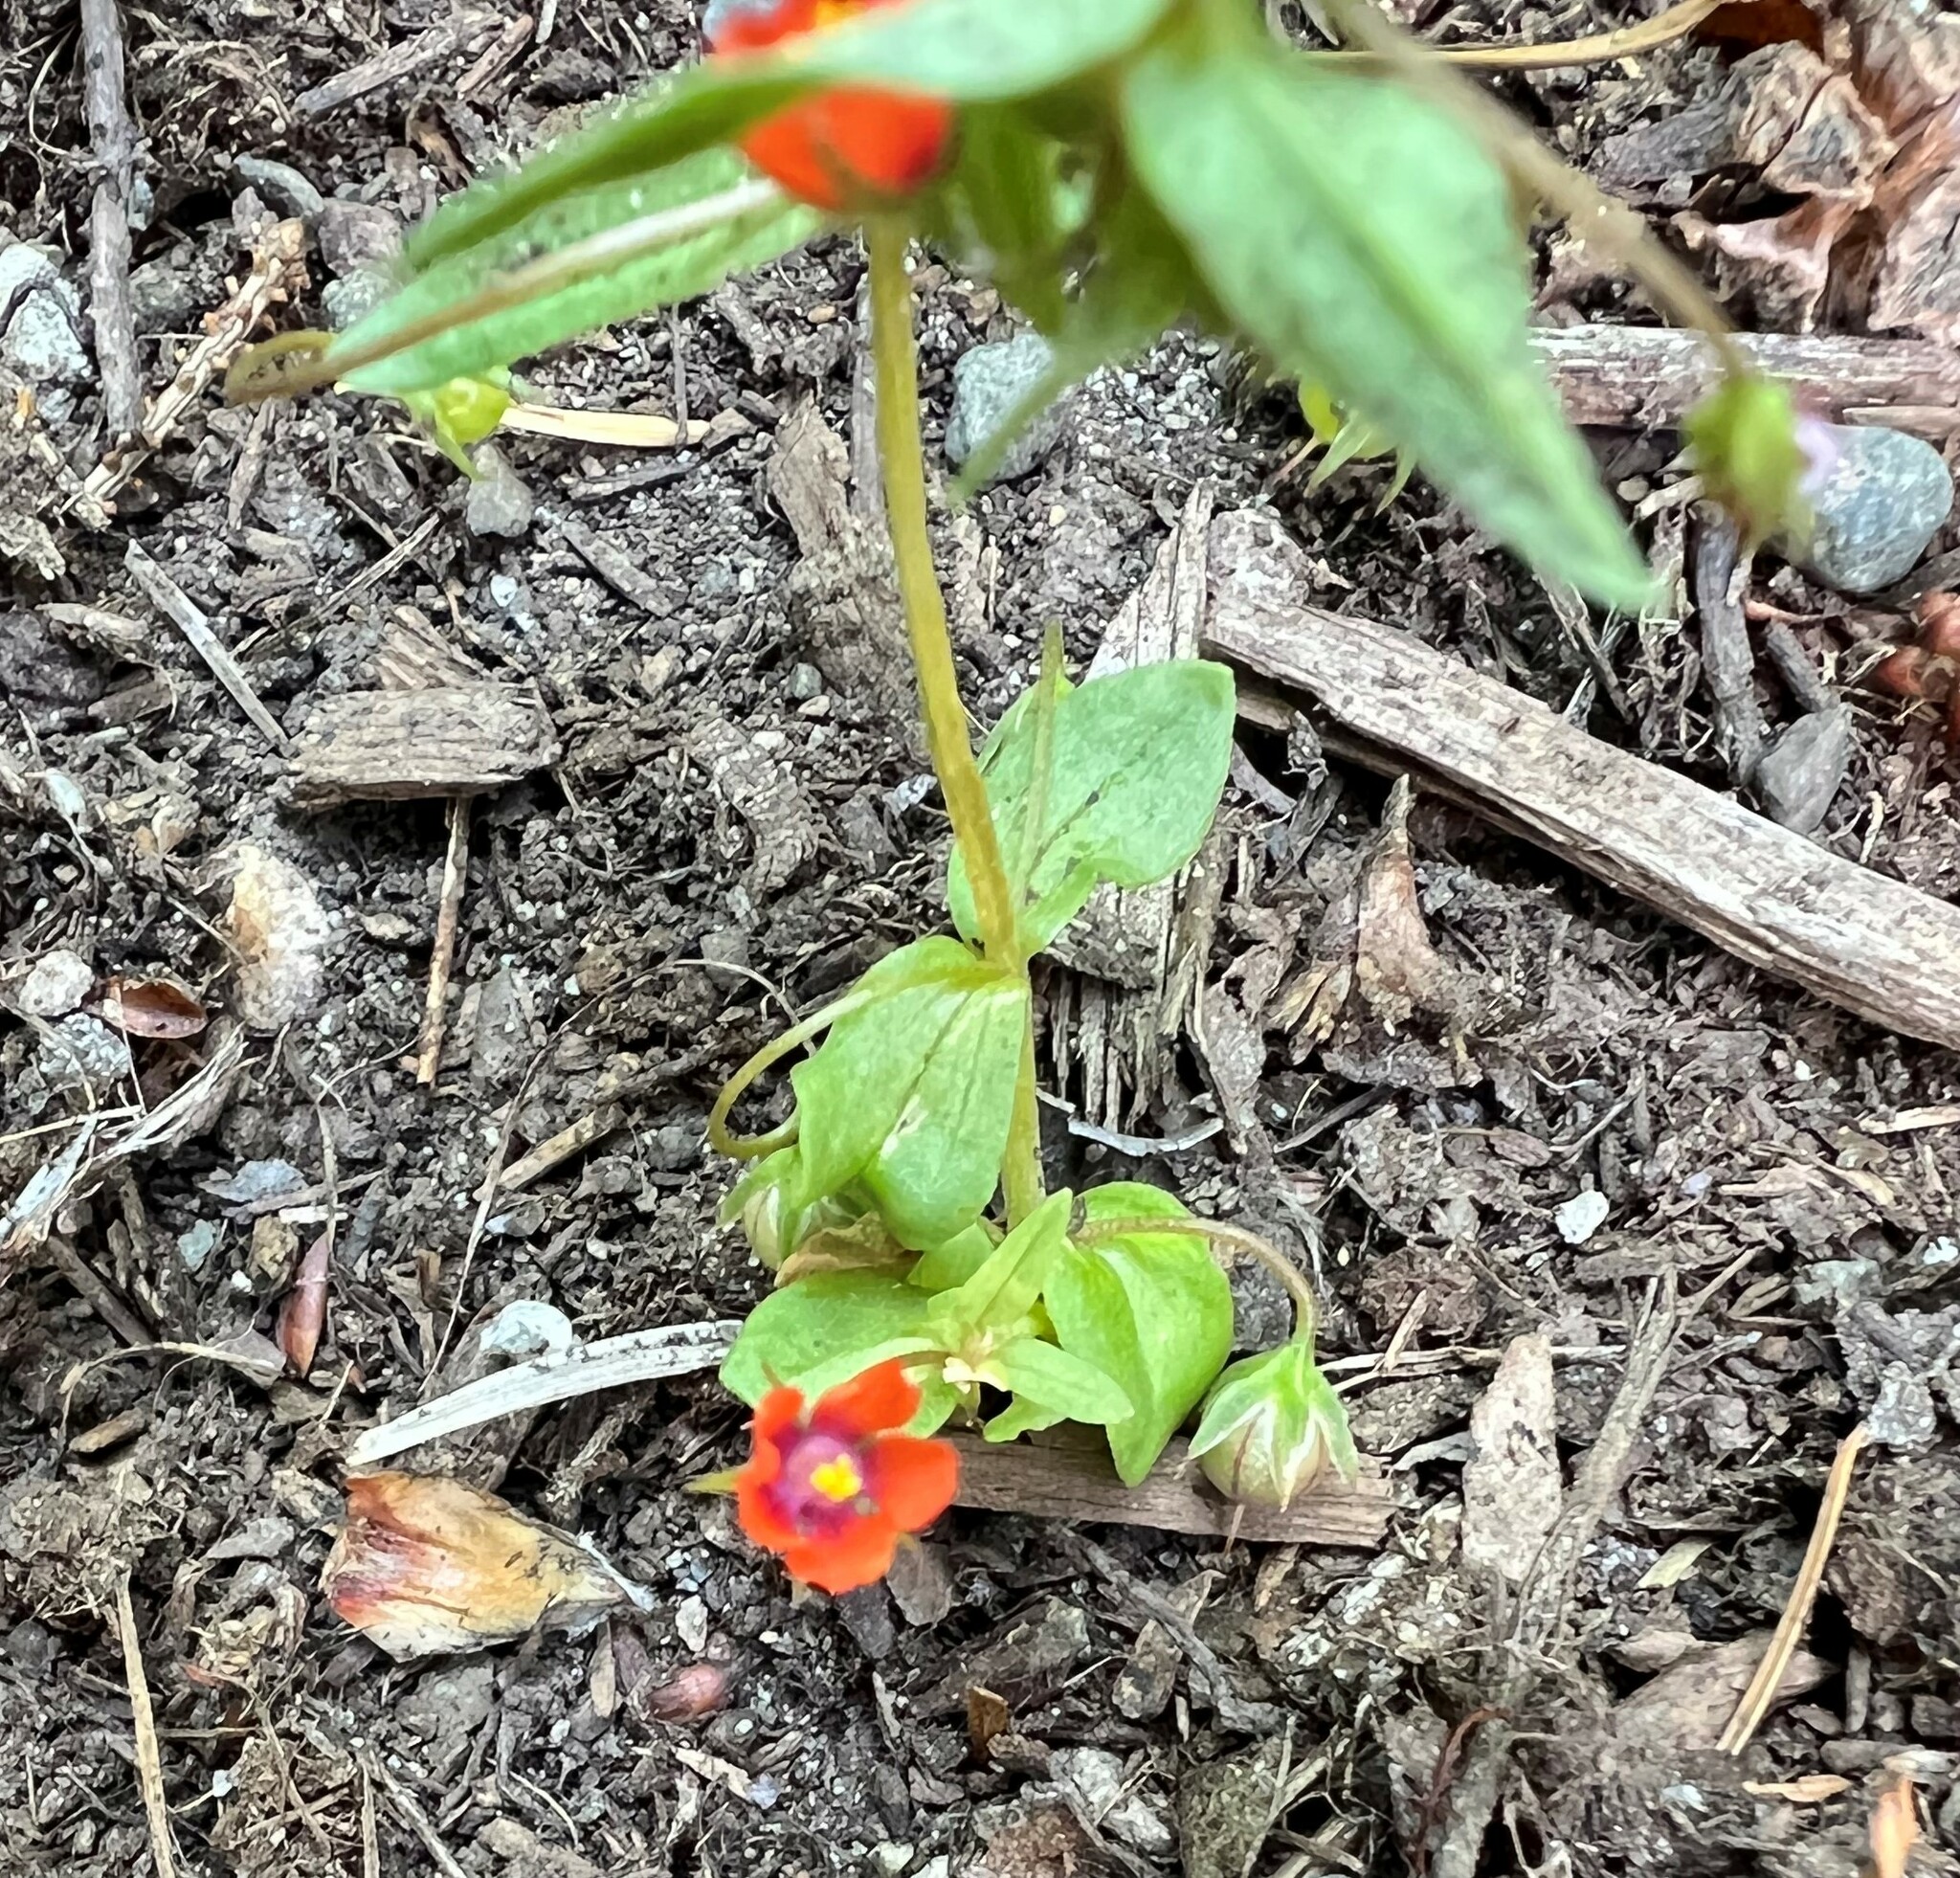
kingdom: Plantae
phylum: Tracheophyta
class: Magnoliopsida
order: Ericales
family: Primulaceae
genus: Lysimachia
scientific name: Lysimachia arvensis
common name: Scarlet pimpernel
